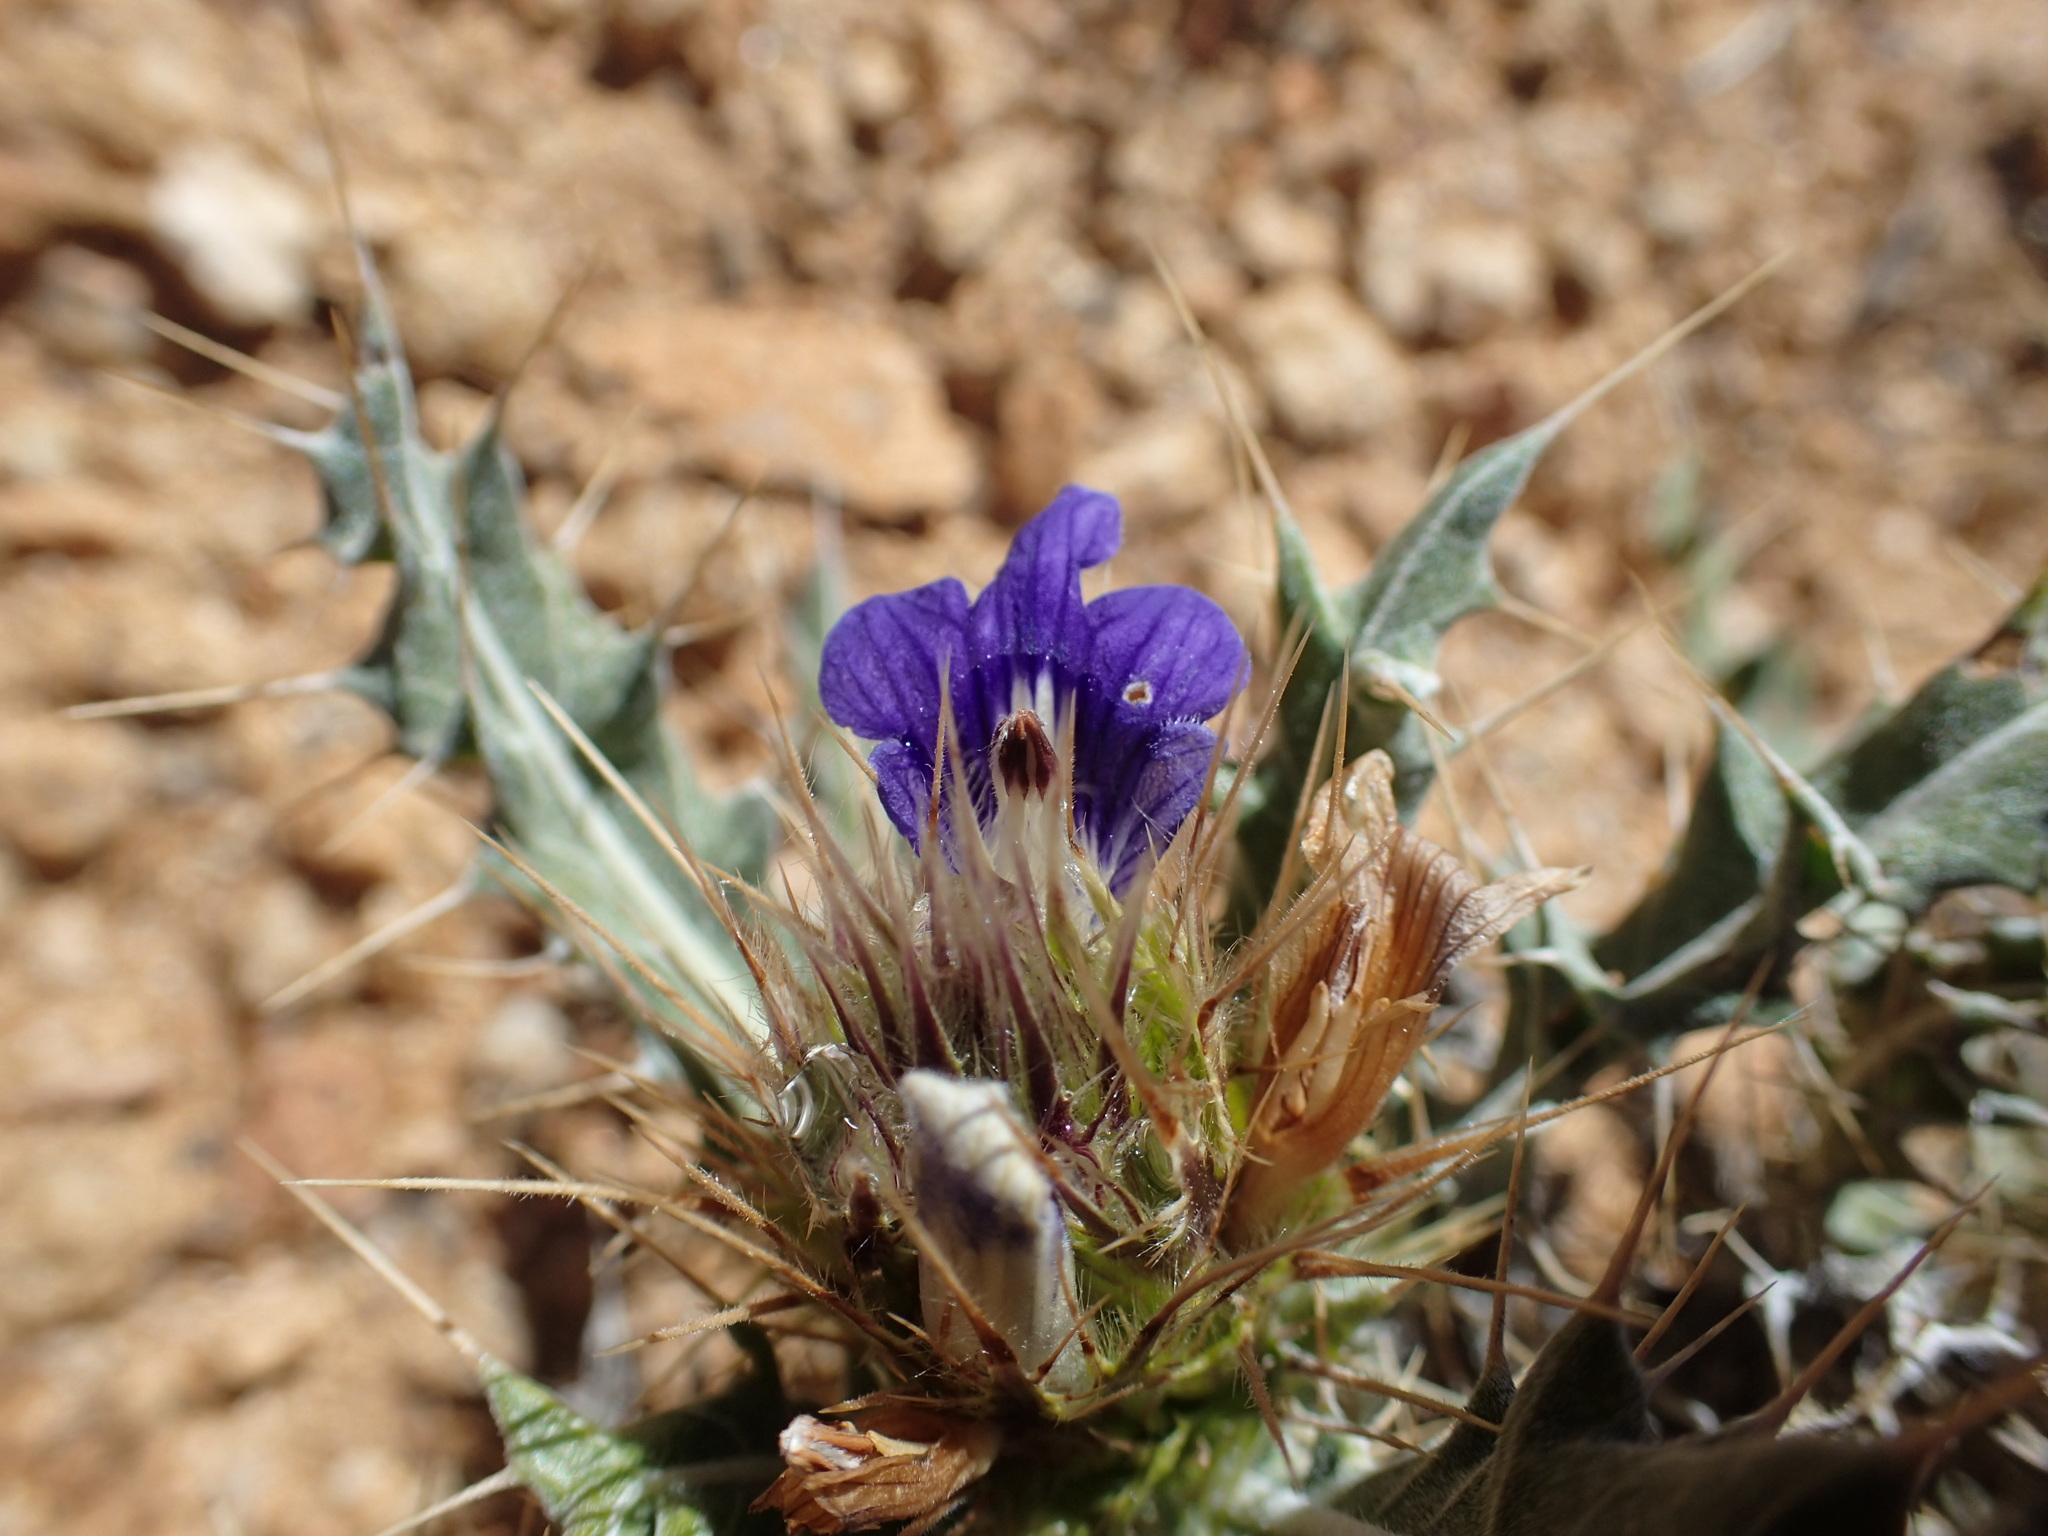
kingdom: Plantae
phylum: Tracheophyta
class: Magnoliopsida
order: Lamiales
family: Acanthaceae
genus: Acanthopsis
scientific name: Acanthopsis horrida
